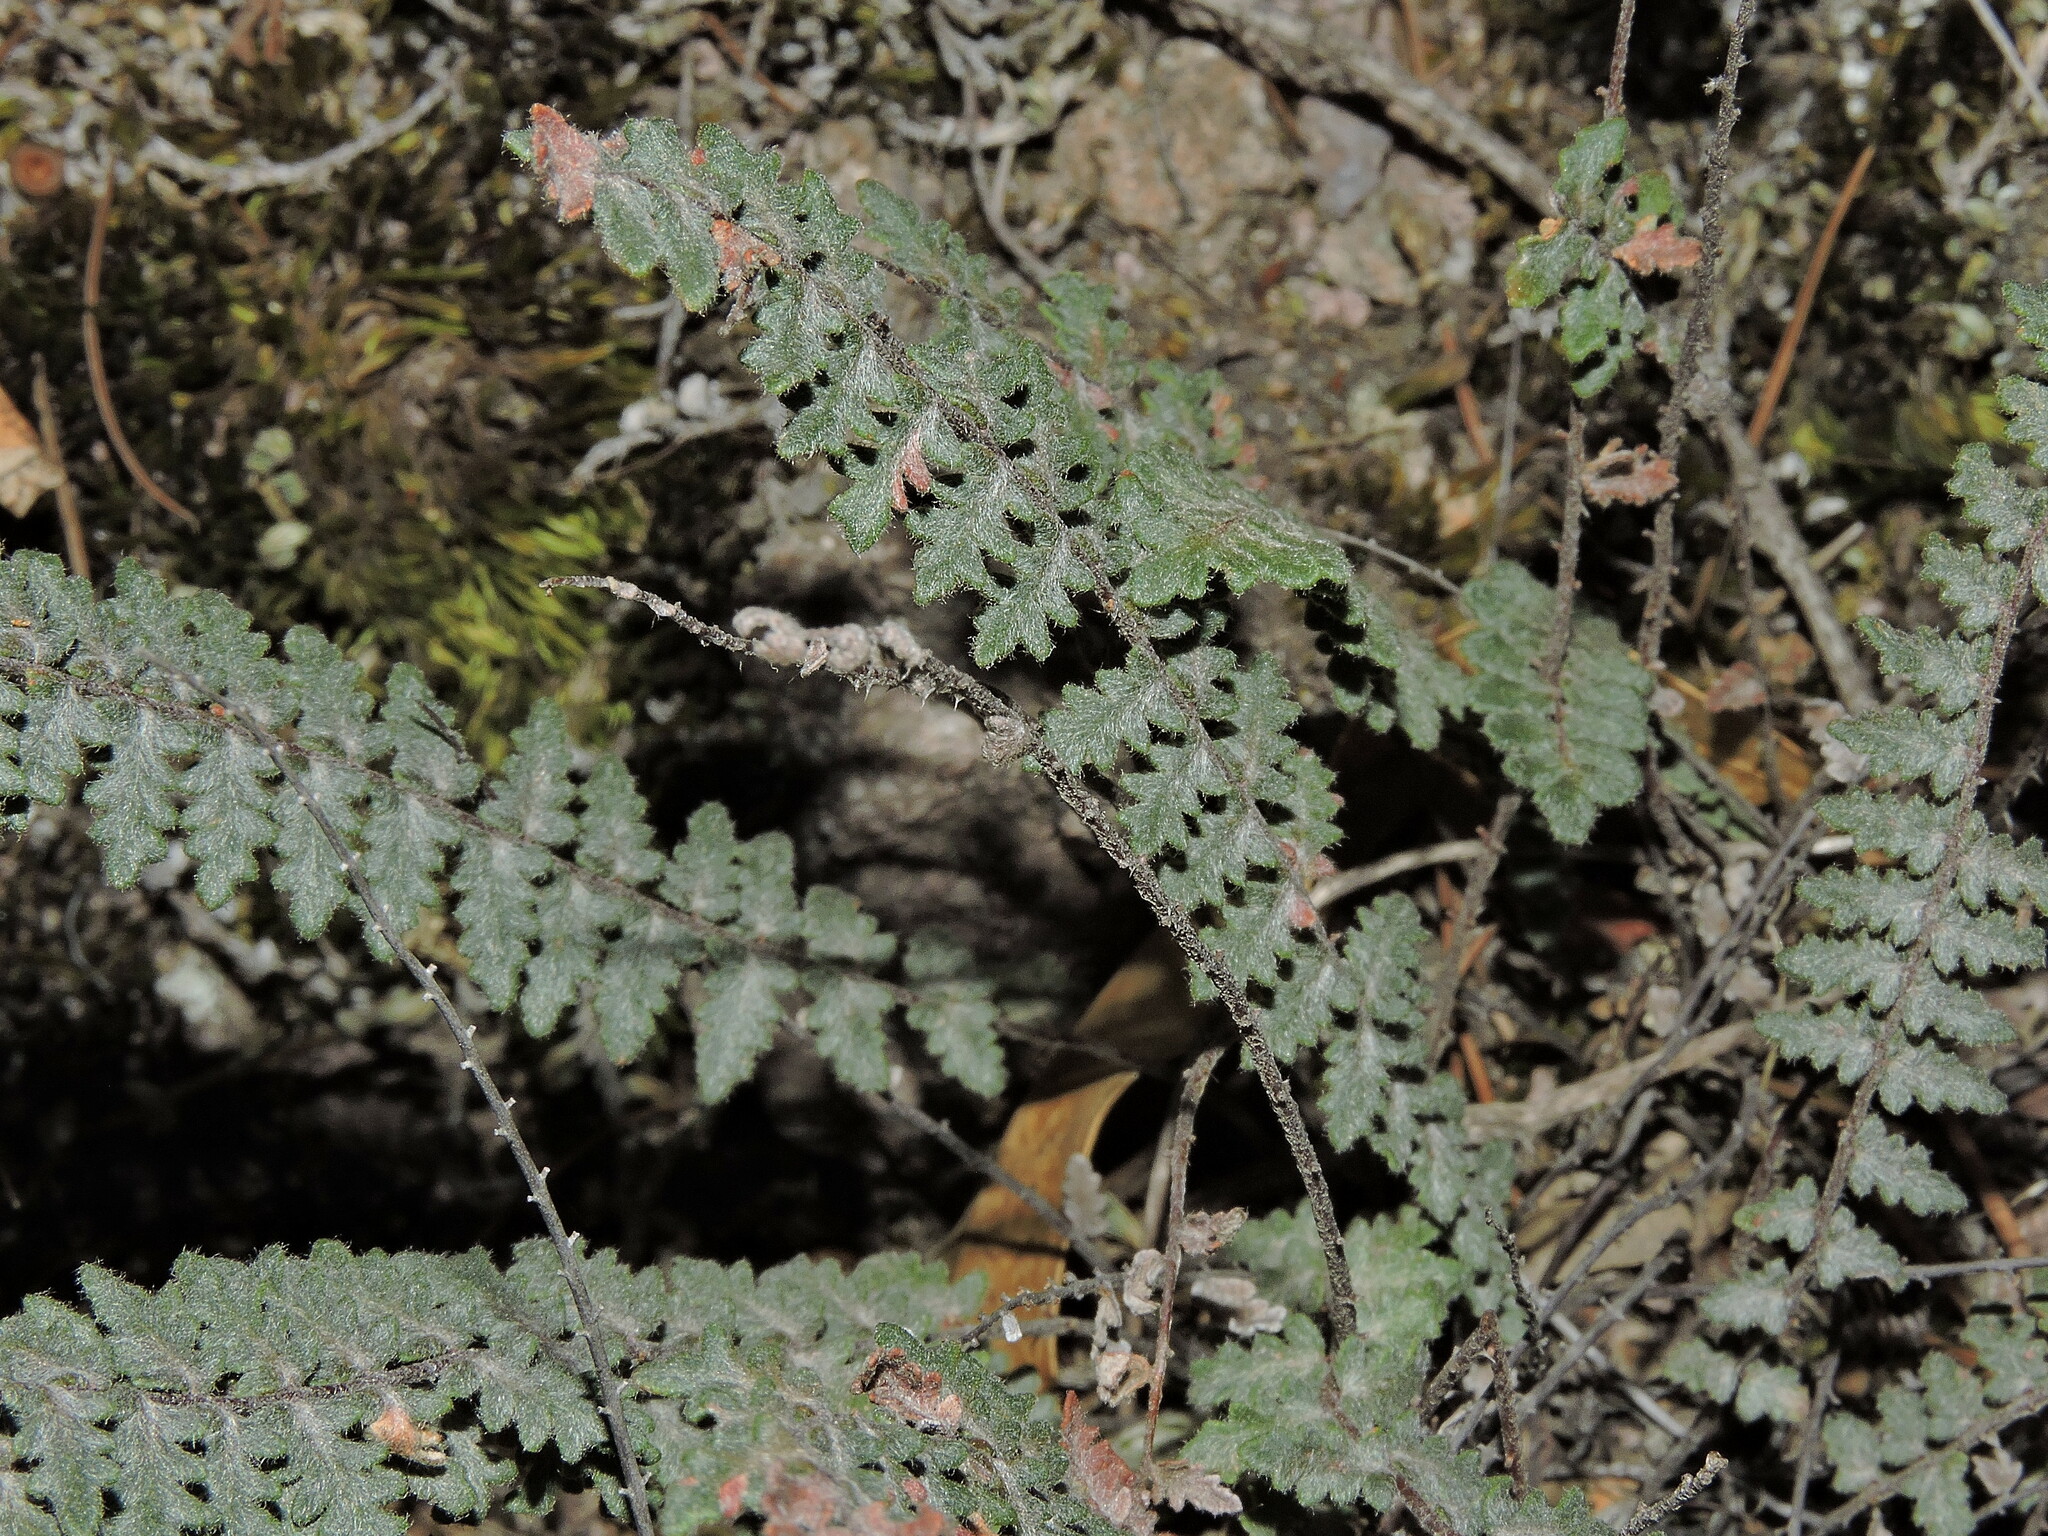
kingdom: Plantae
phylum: Tracheophyta
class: Polypodiopsida
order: Polypodiales
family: Pteridaceae
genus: Myriopteris
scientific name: Myriopteris aurea
